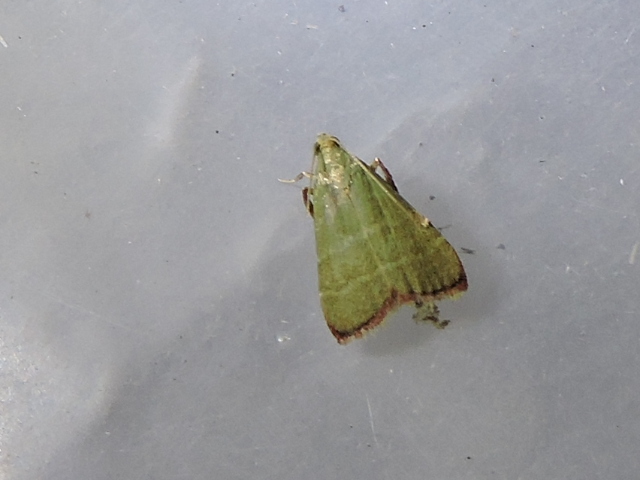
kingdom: Animalia
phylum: Arthropoda
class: Insecta
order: Lepidoptera
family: Pyralidae
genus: Arta
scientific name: Arta olivalis
